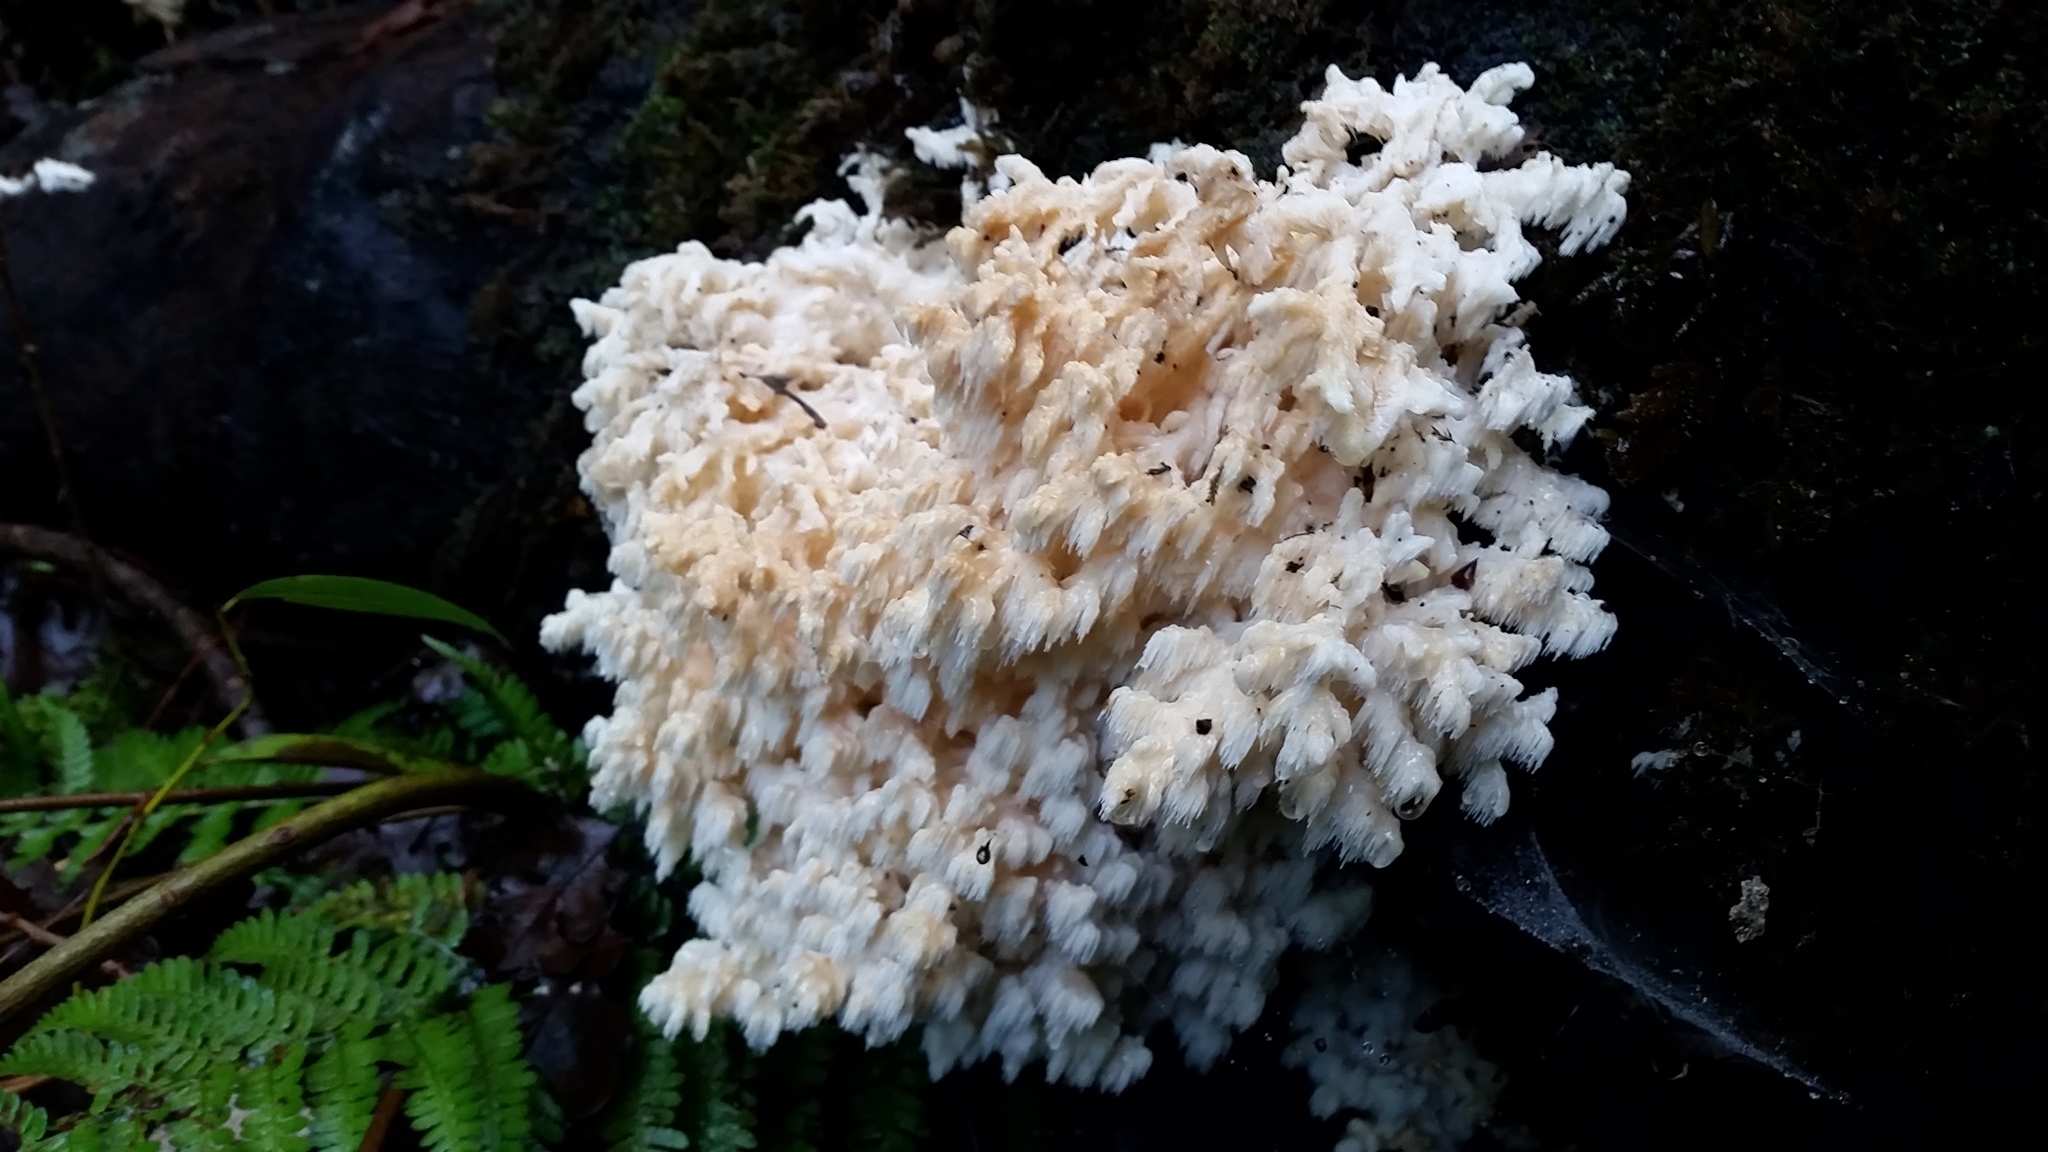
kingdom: Fungi
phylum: Basidiomycota
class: Agaricomycetes
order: Russulales
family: Hericiaceae
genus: Hericium
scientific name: Hericium coralloides
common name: Coral tooth
